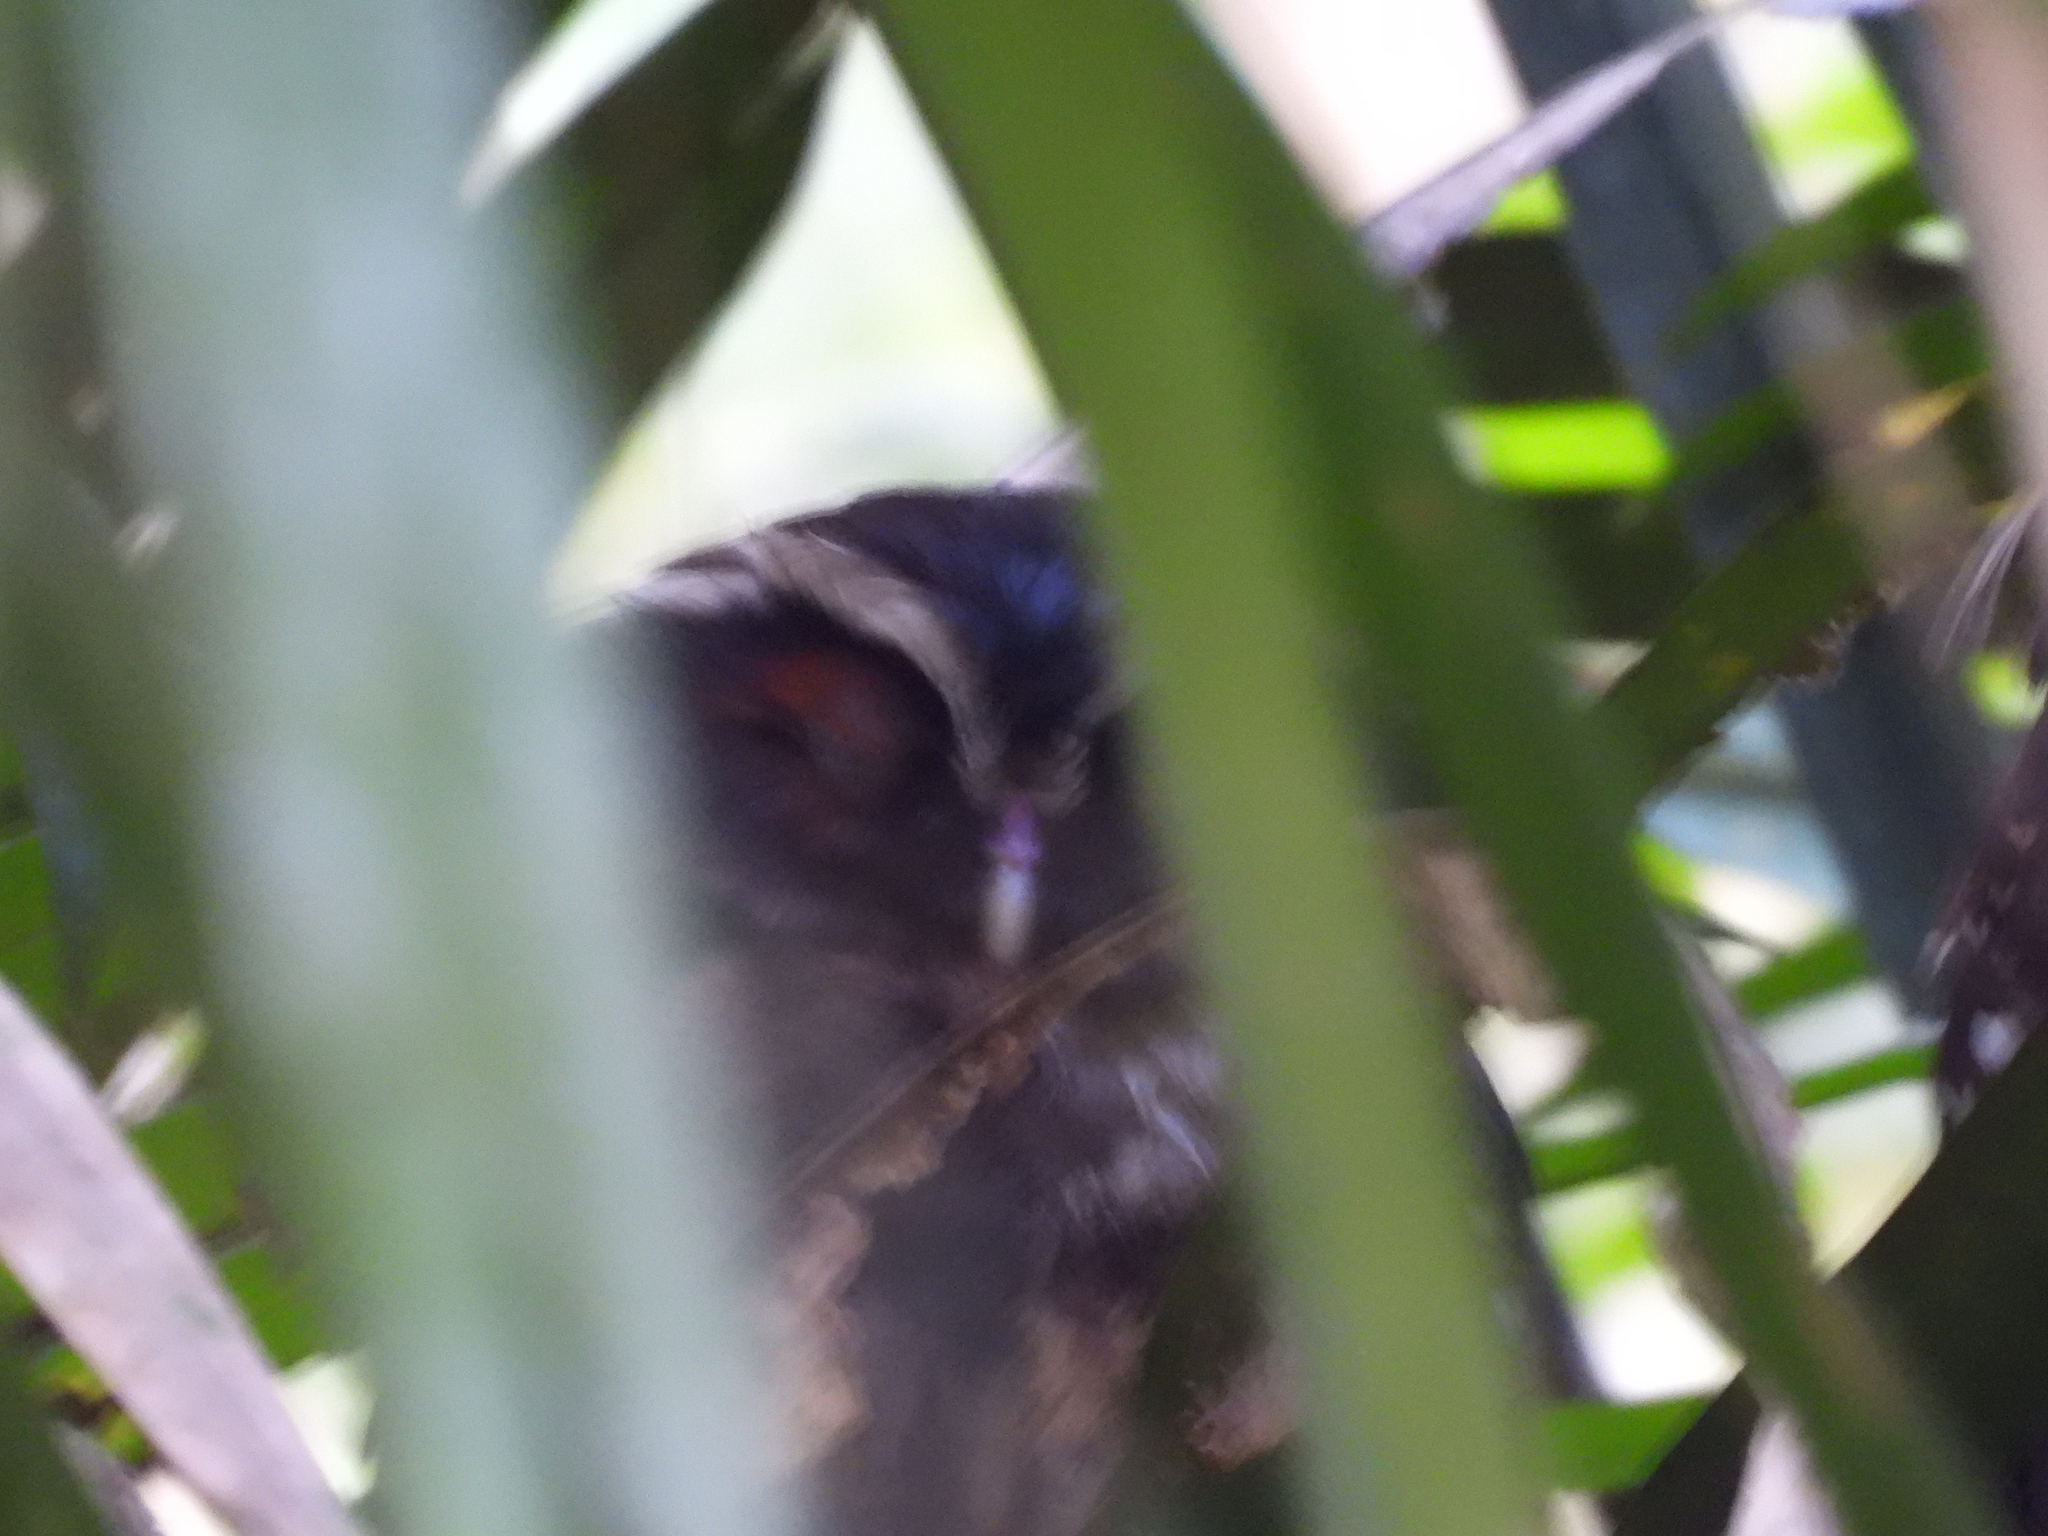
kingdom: Animalia
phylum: Chordata
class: Aves
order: Strigiformes
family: Strigidae
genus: Lophostrix
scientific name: Lophostrix cristata
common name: Crested owl
